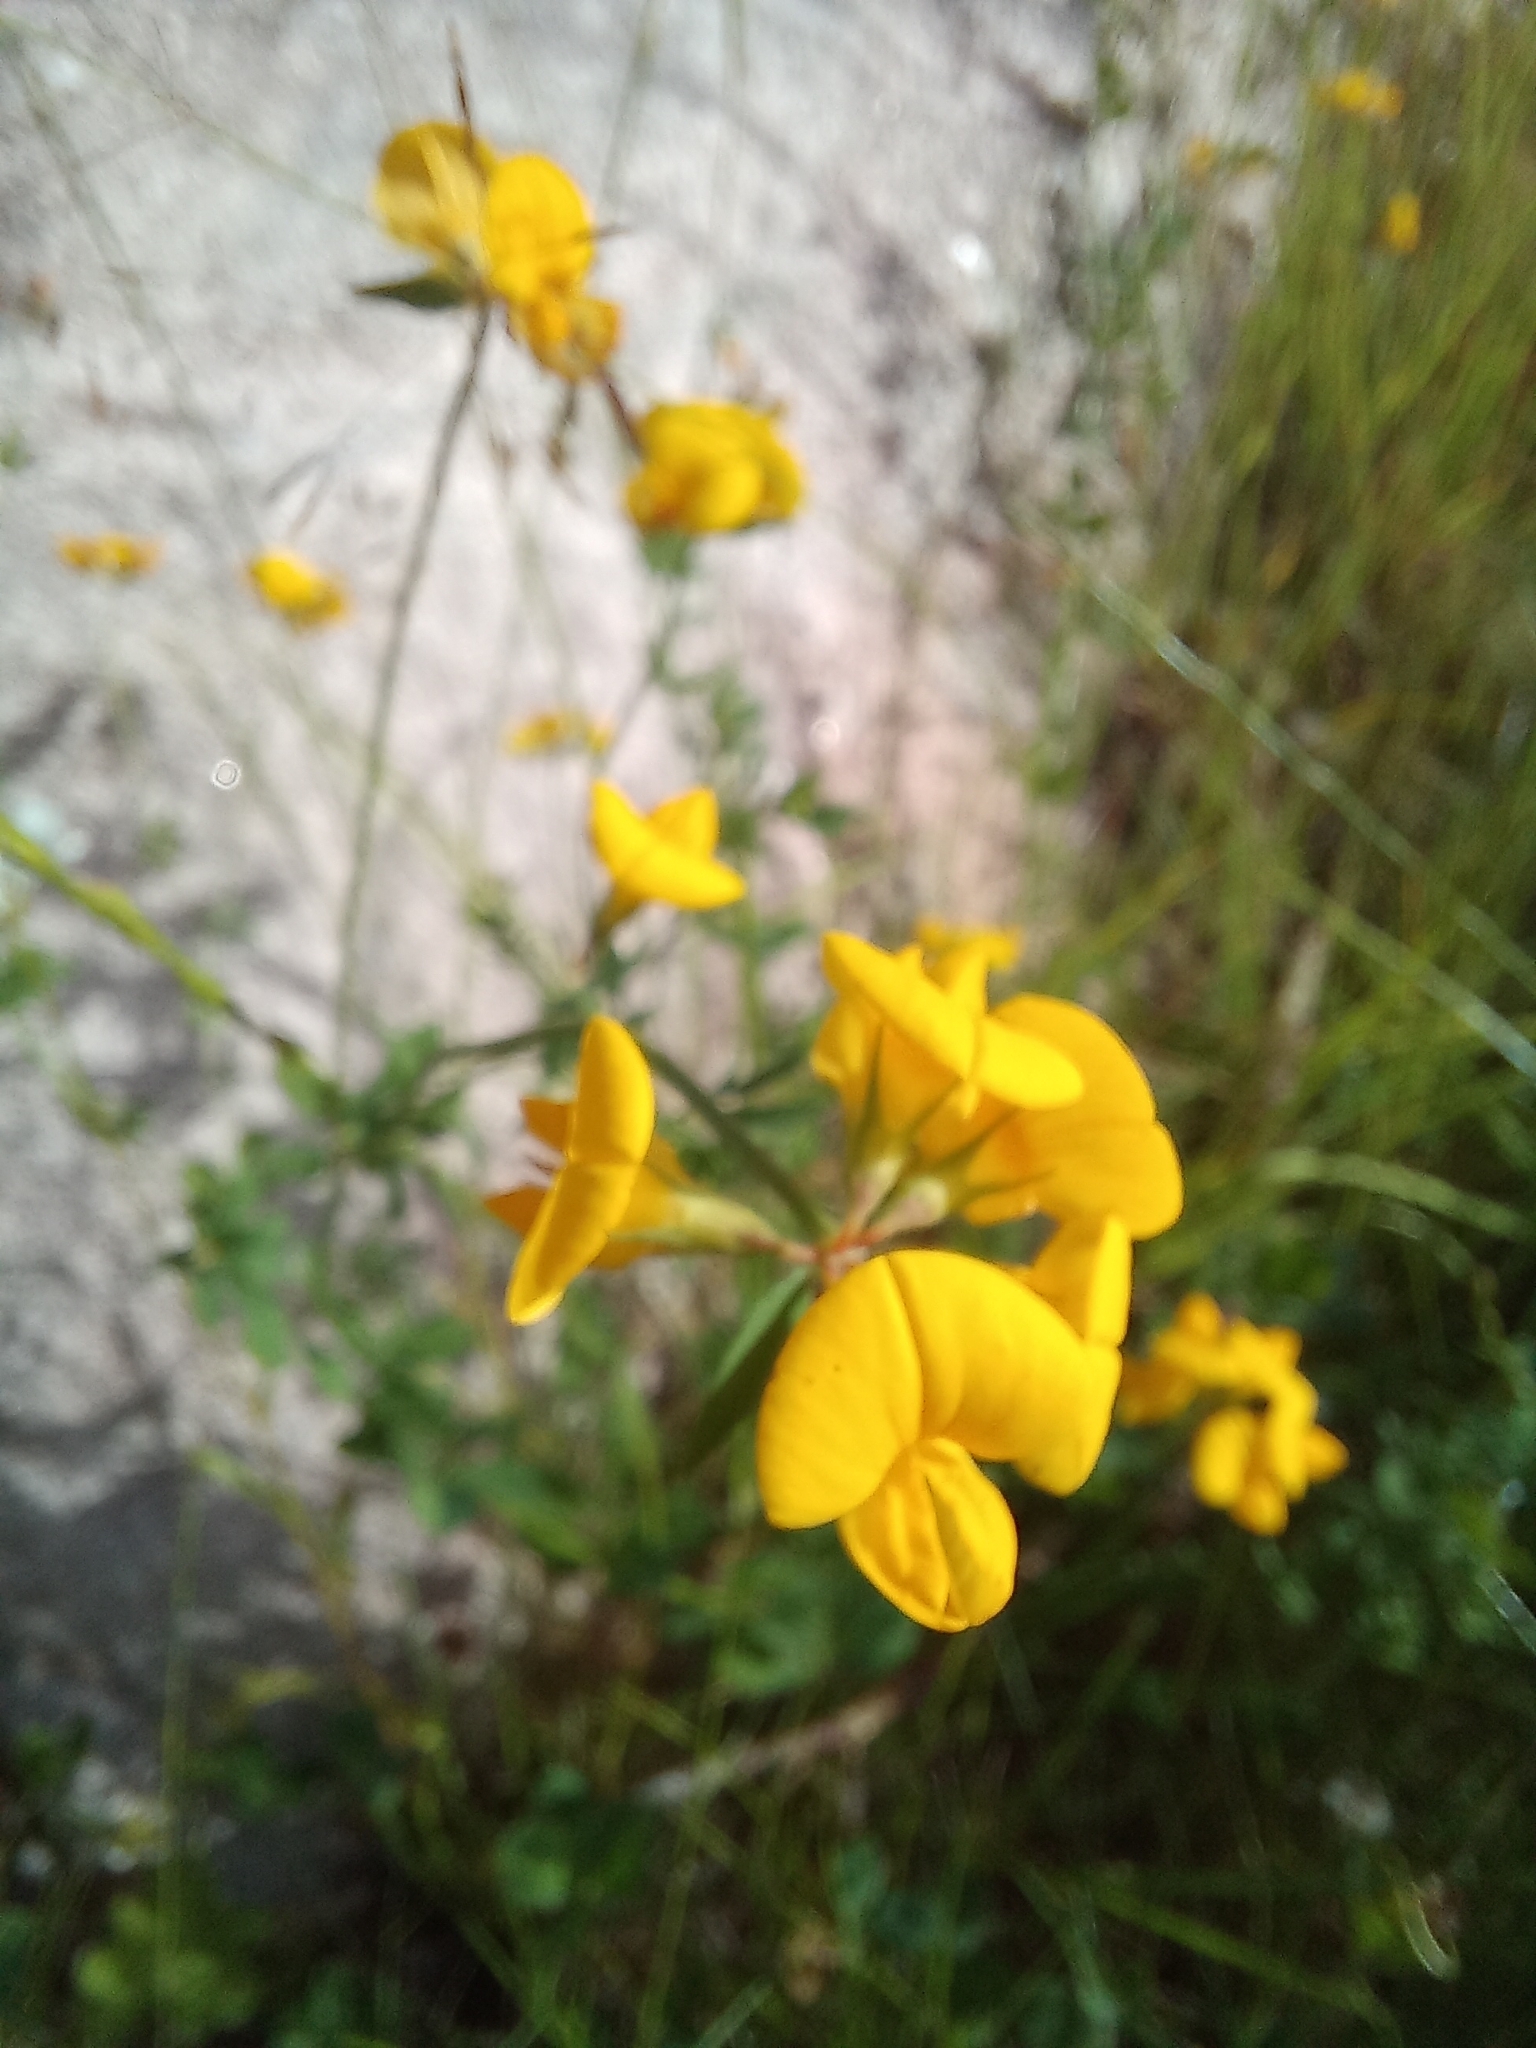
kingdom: Plantae
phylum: Tracheophyta
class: Magnoliopsida
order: Fabales
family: Fabaceae
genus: Lotus
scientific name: Lotus corniculatus
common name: Common bird's-foot-trefoil
